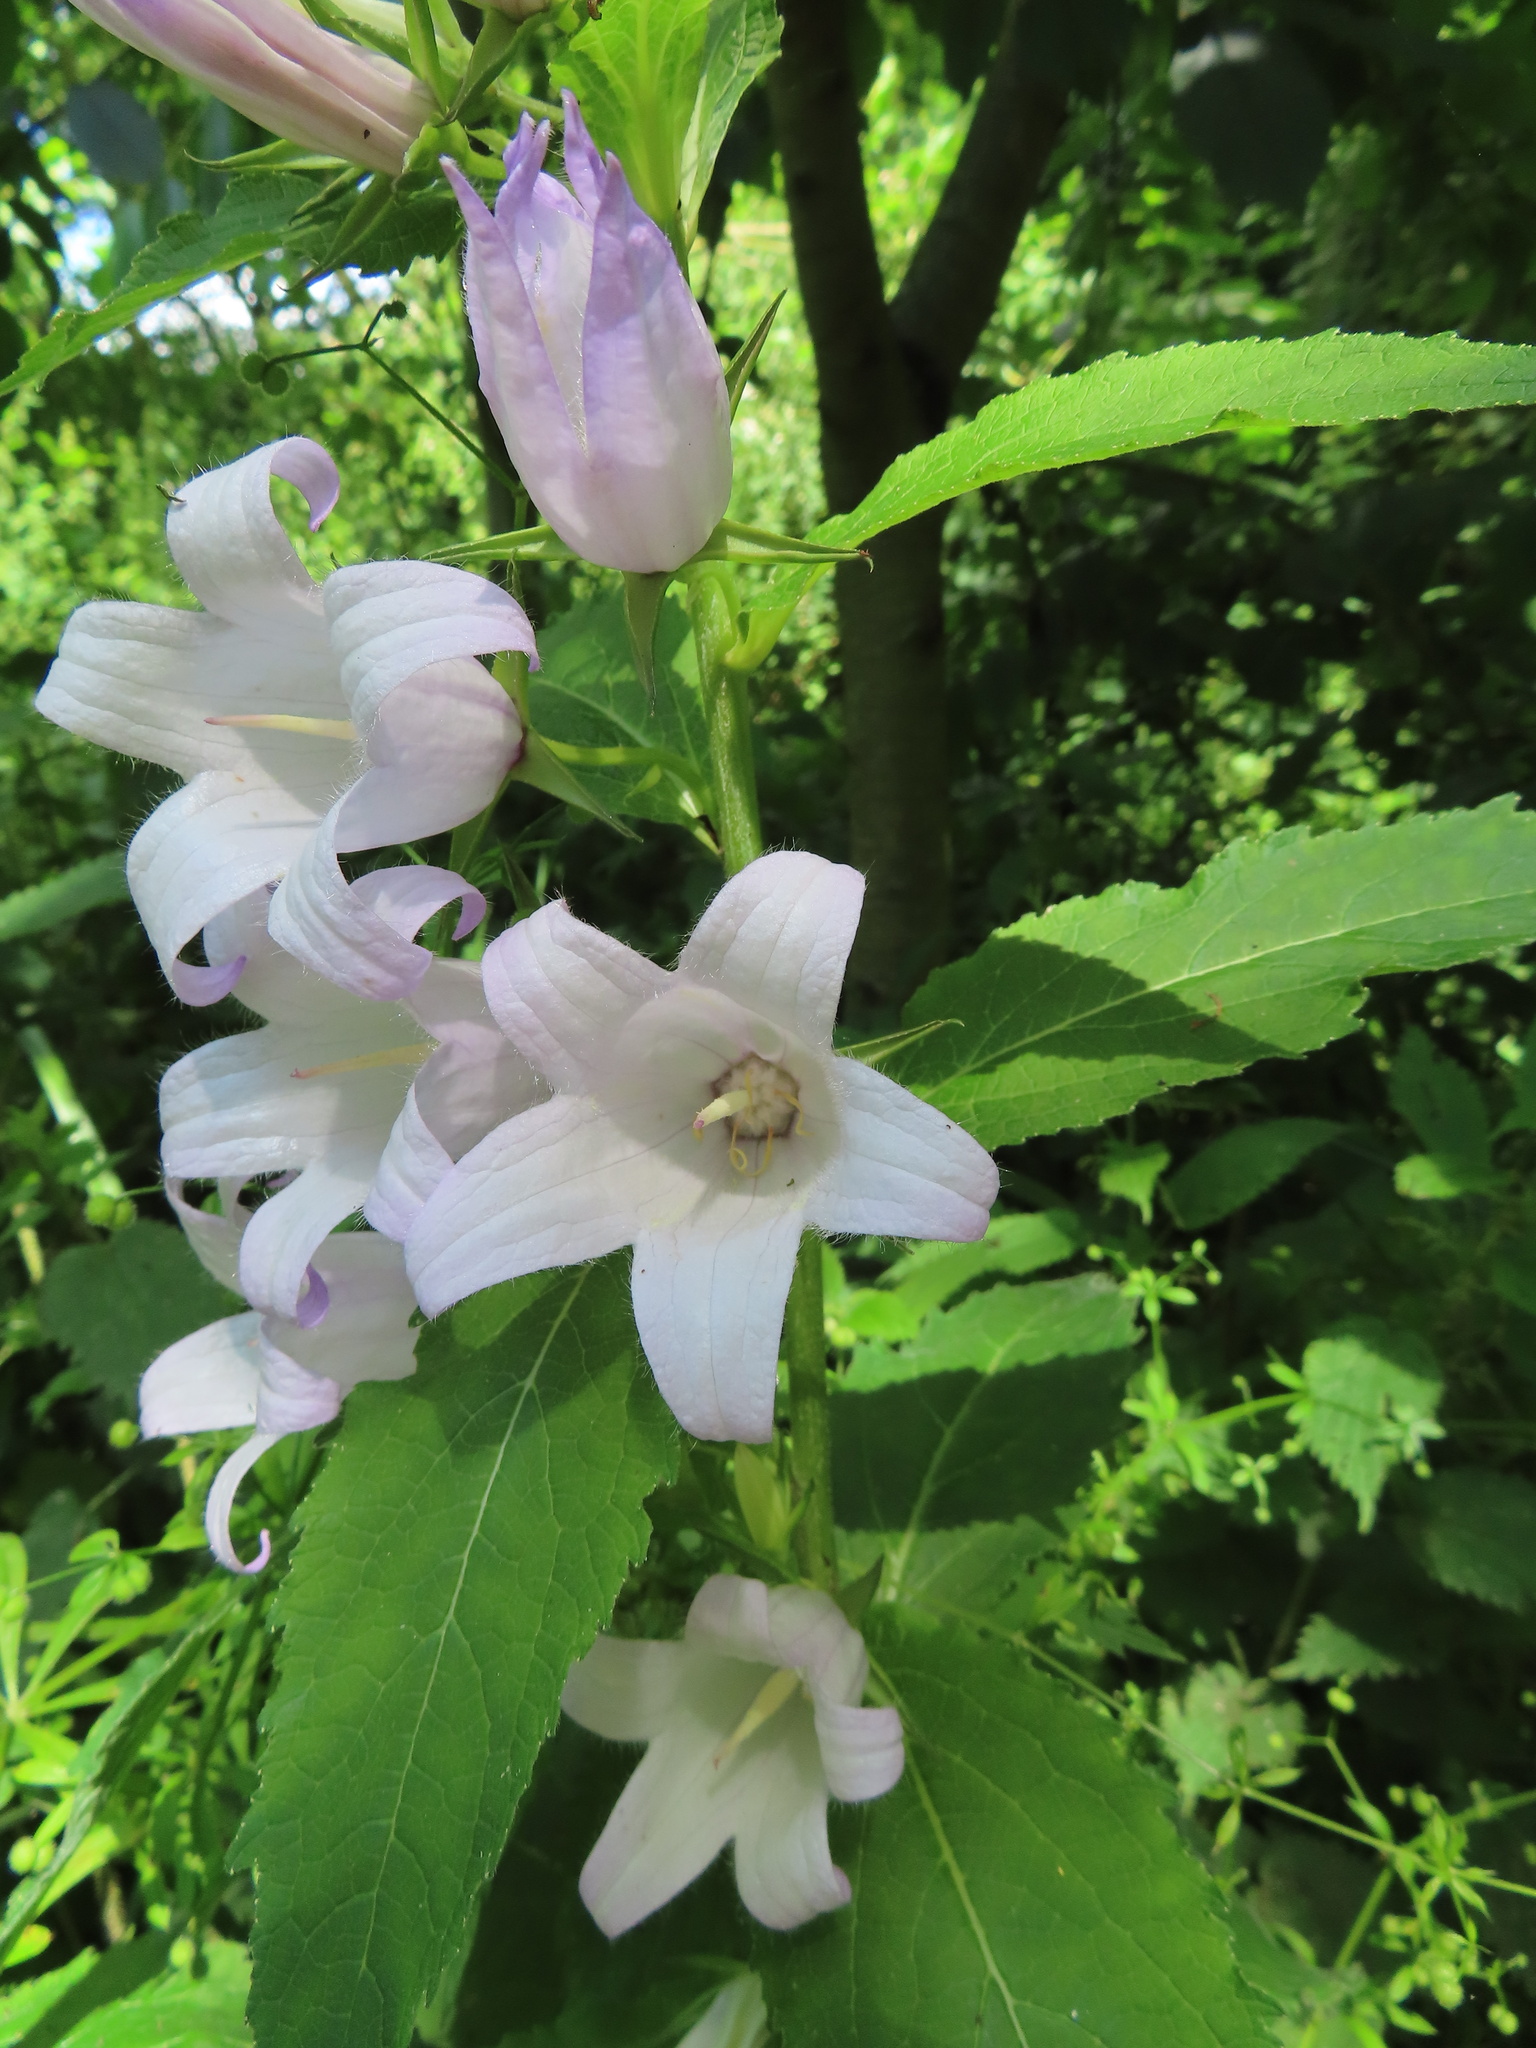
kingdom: Plantae
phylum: Tracheophyta
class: Magnoliopsida
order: Asterales
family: Campanulaceae
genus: Campanula
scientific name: Campanula latifolia
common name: Giant bellflower
